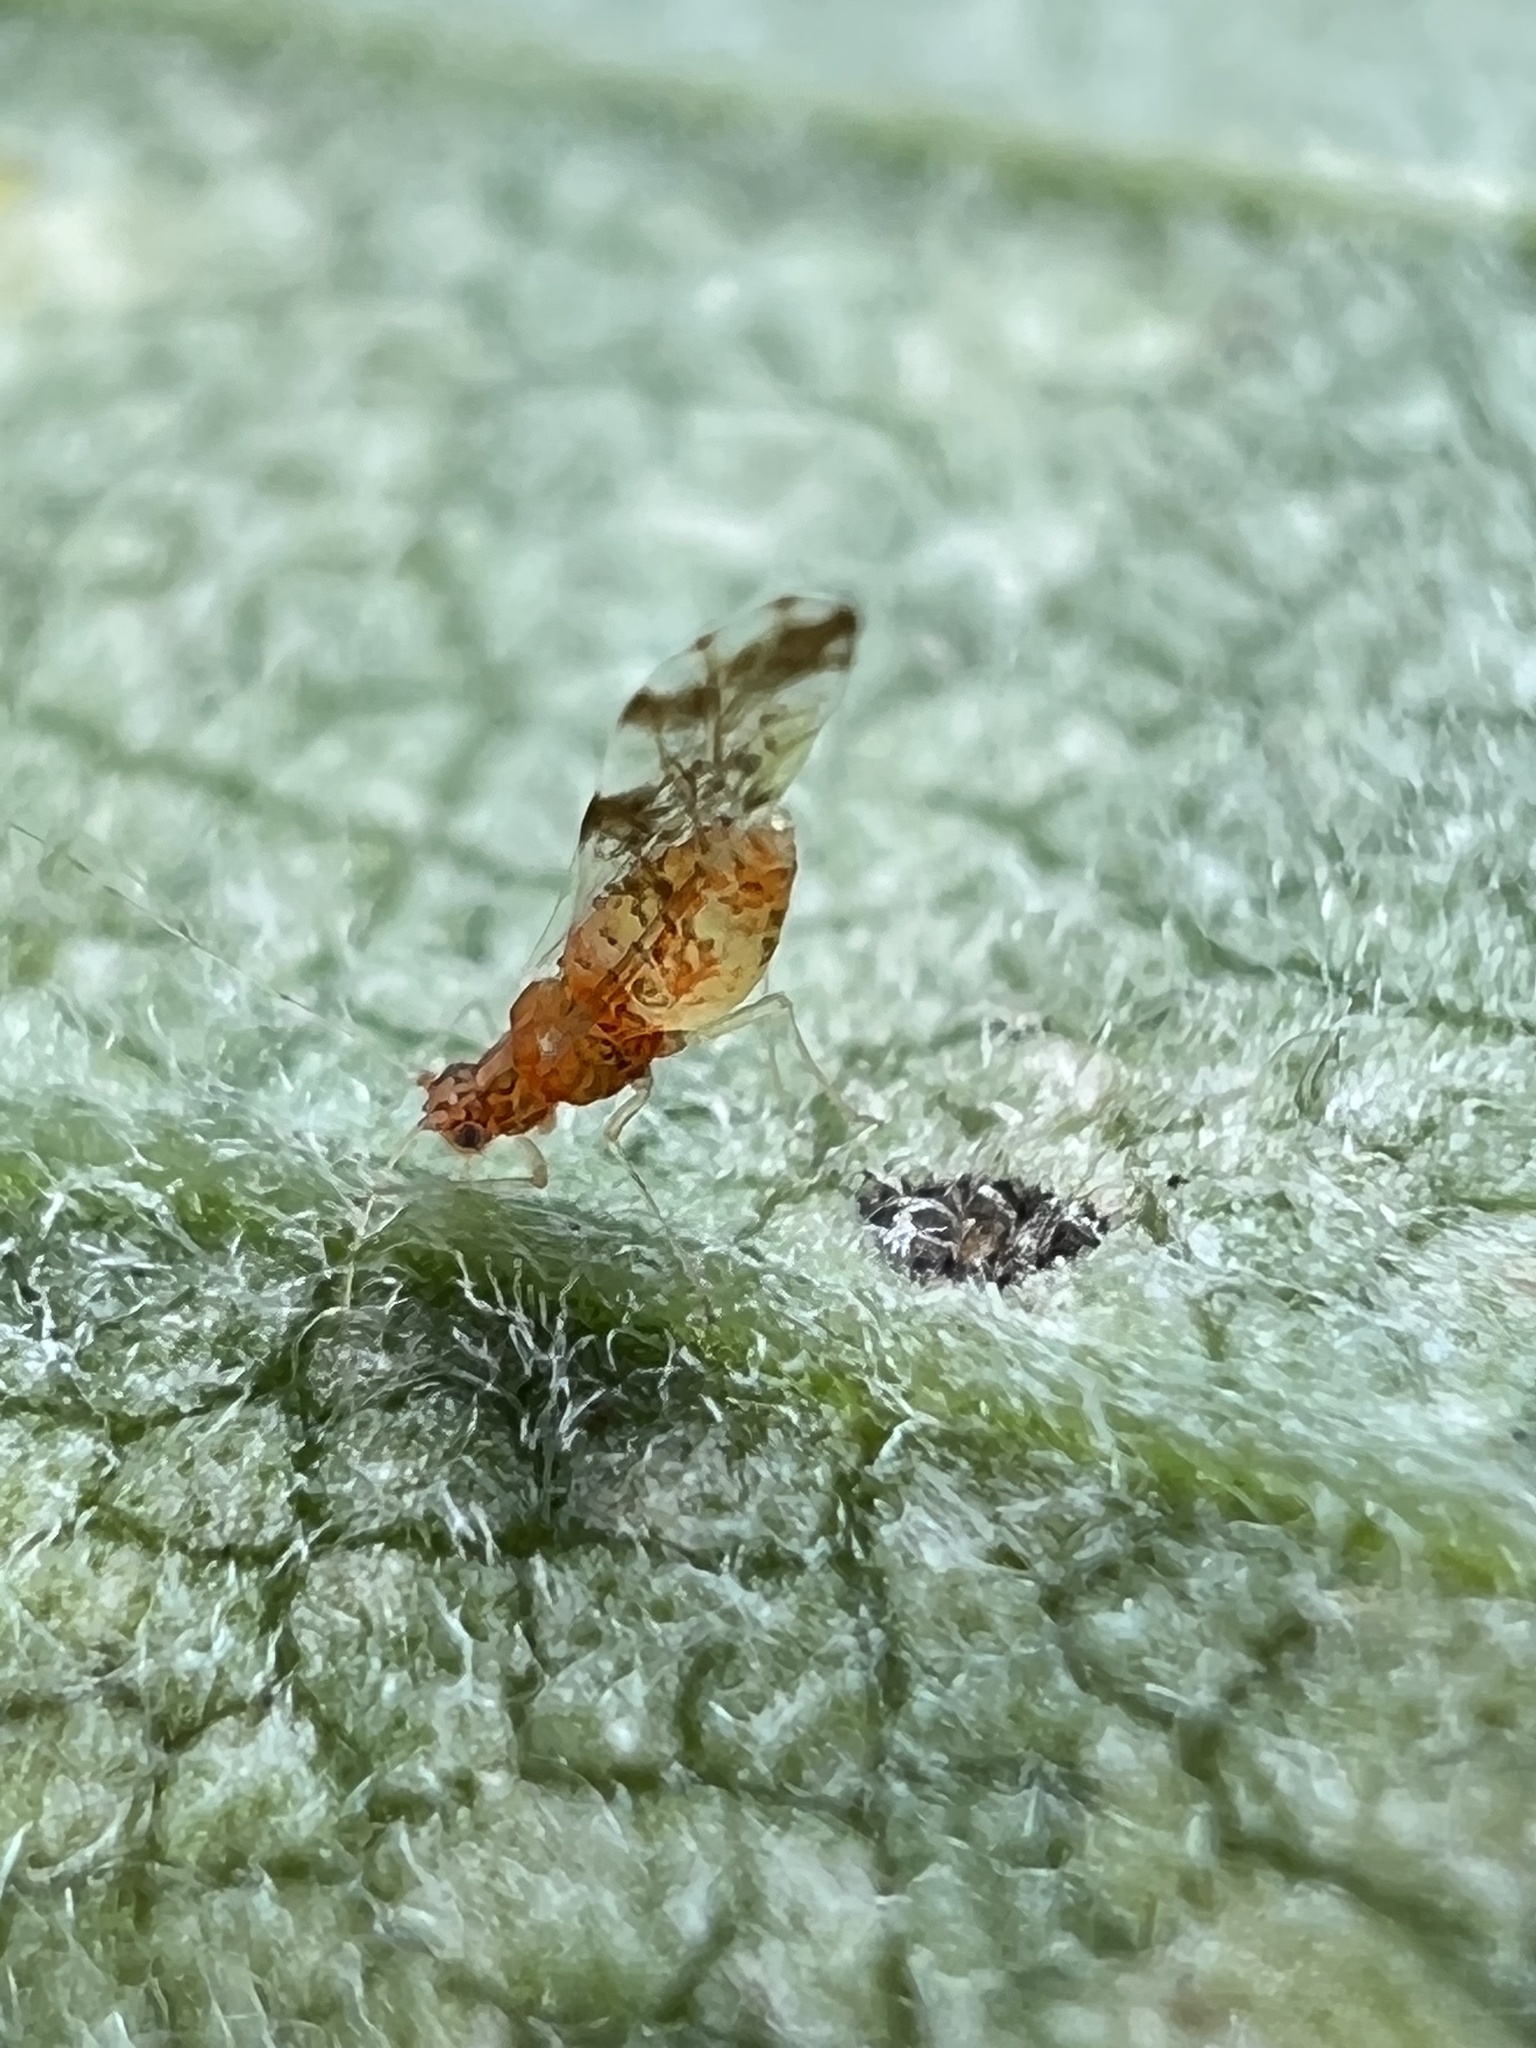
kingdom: Animalia
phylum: Arthropoda
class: Insecta
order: Hemiptera
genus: Neomyzocallis
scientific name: Neomyzocallis
